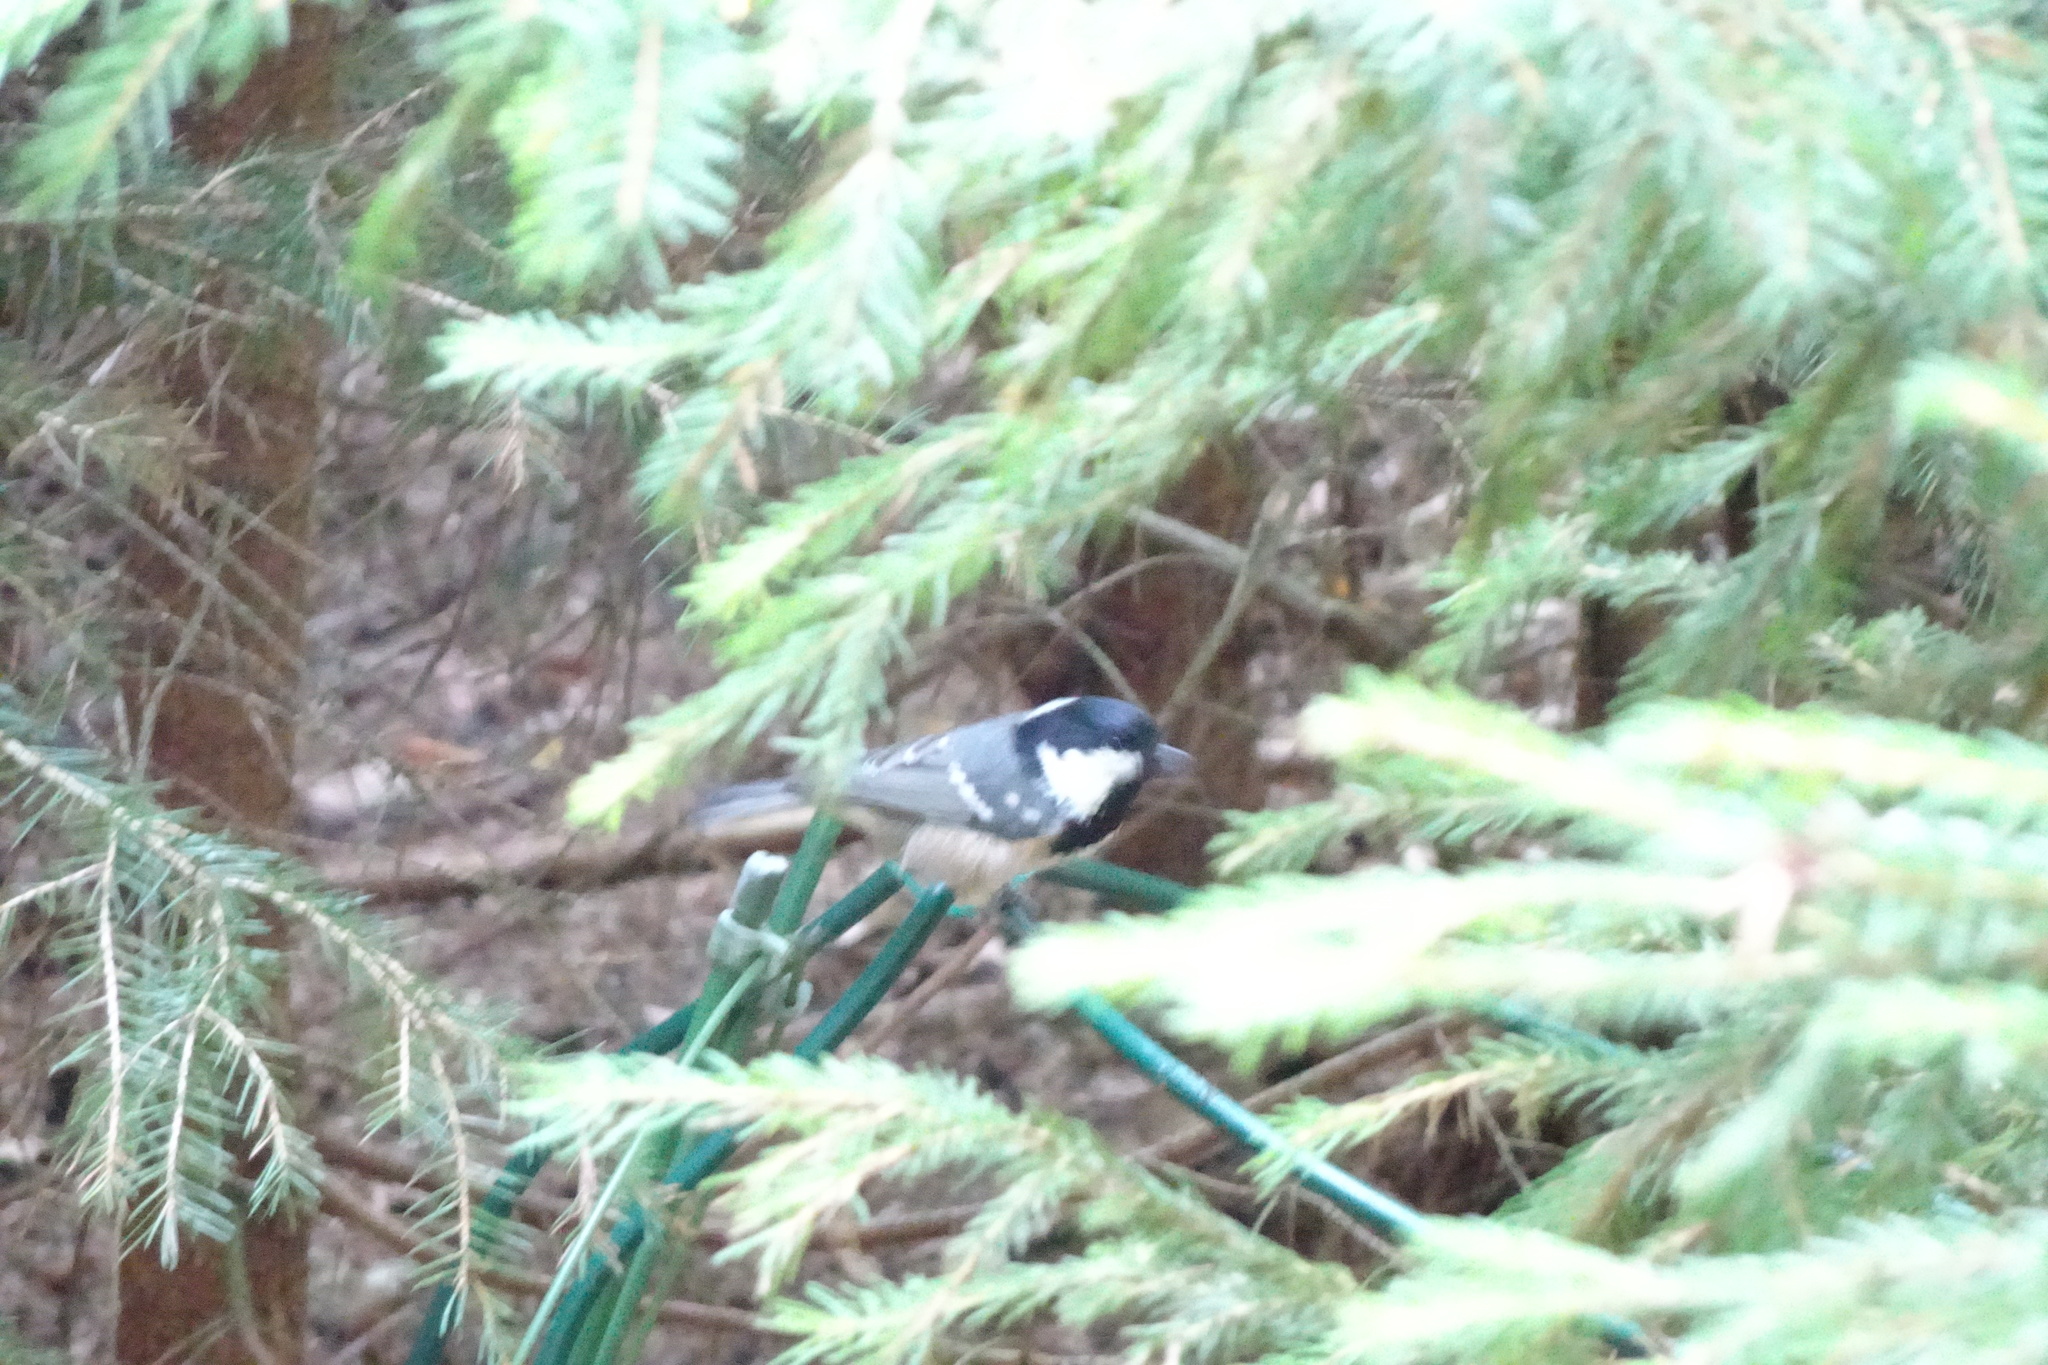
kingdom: Animalia
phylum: Chordata
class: Aves
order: Passeriformes
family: Paridae
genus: Periparus
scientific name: Periparus ater
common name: Coal tit
